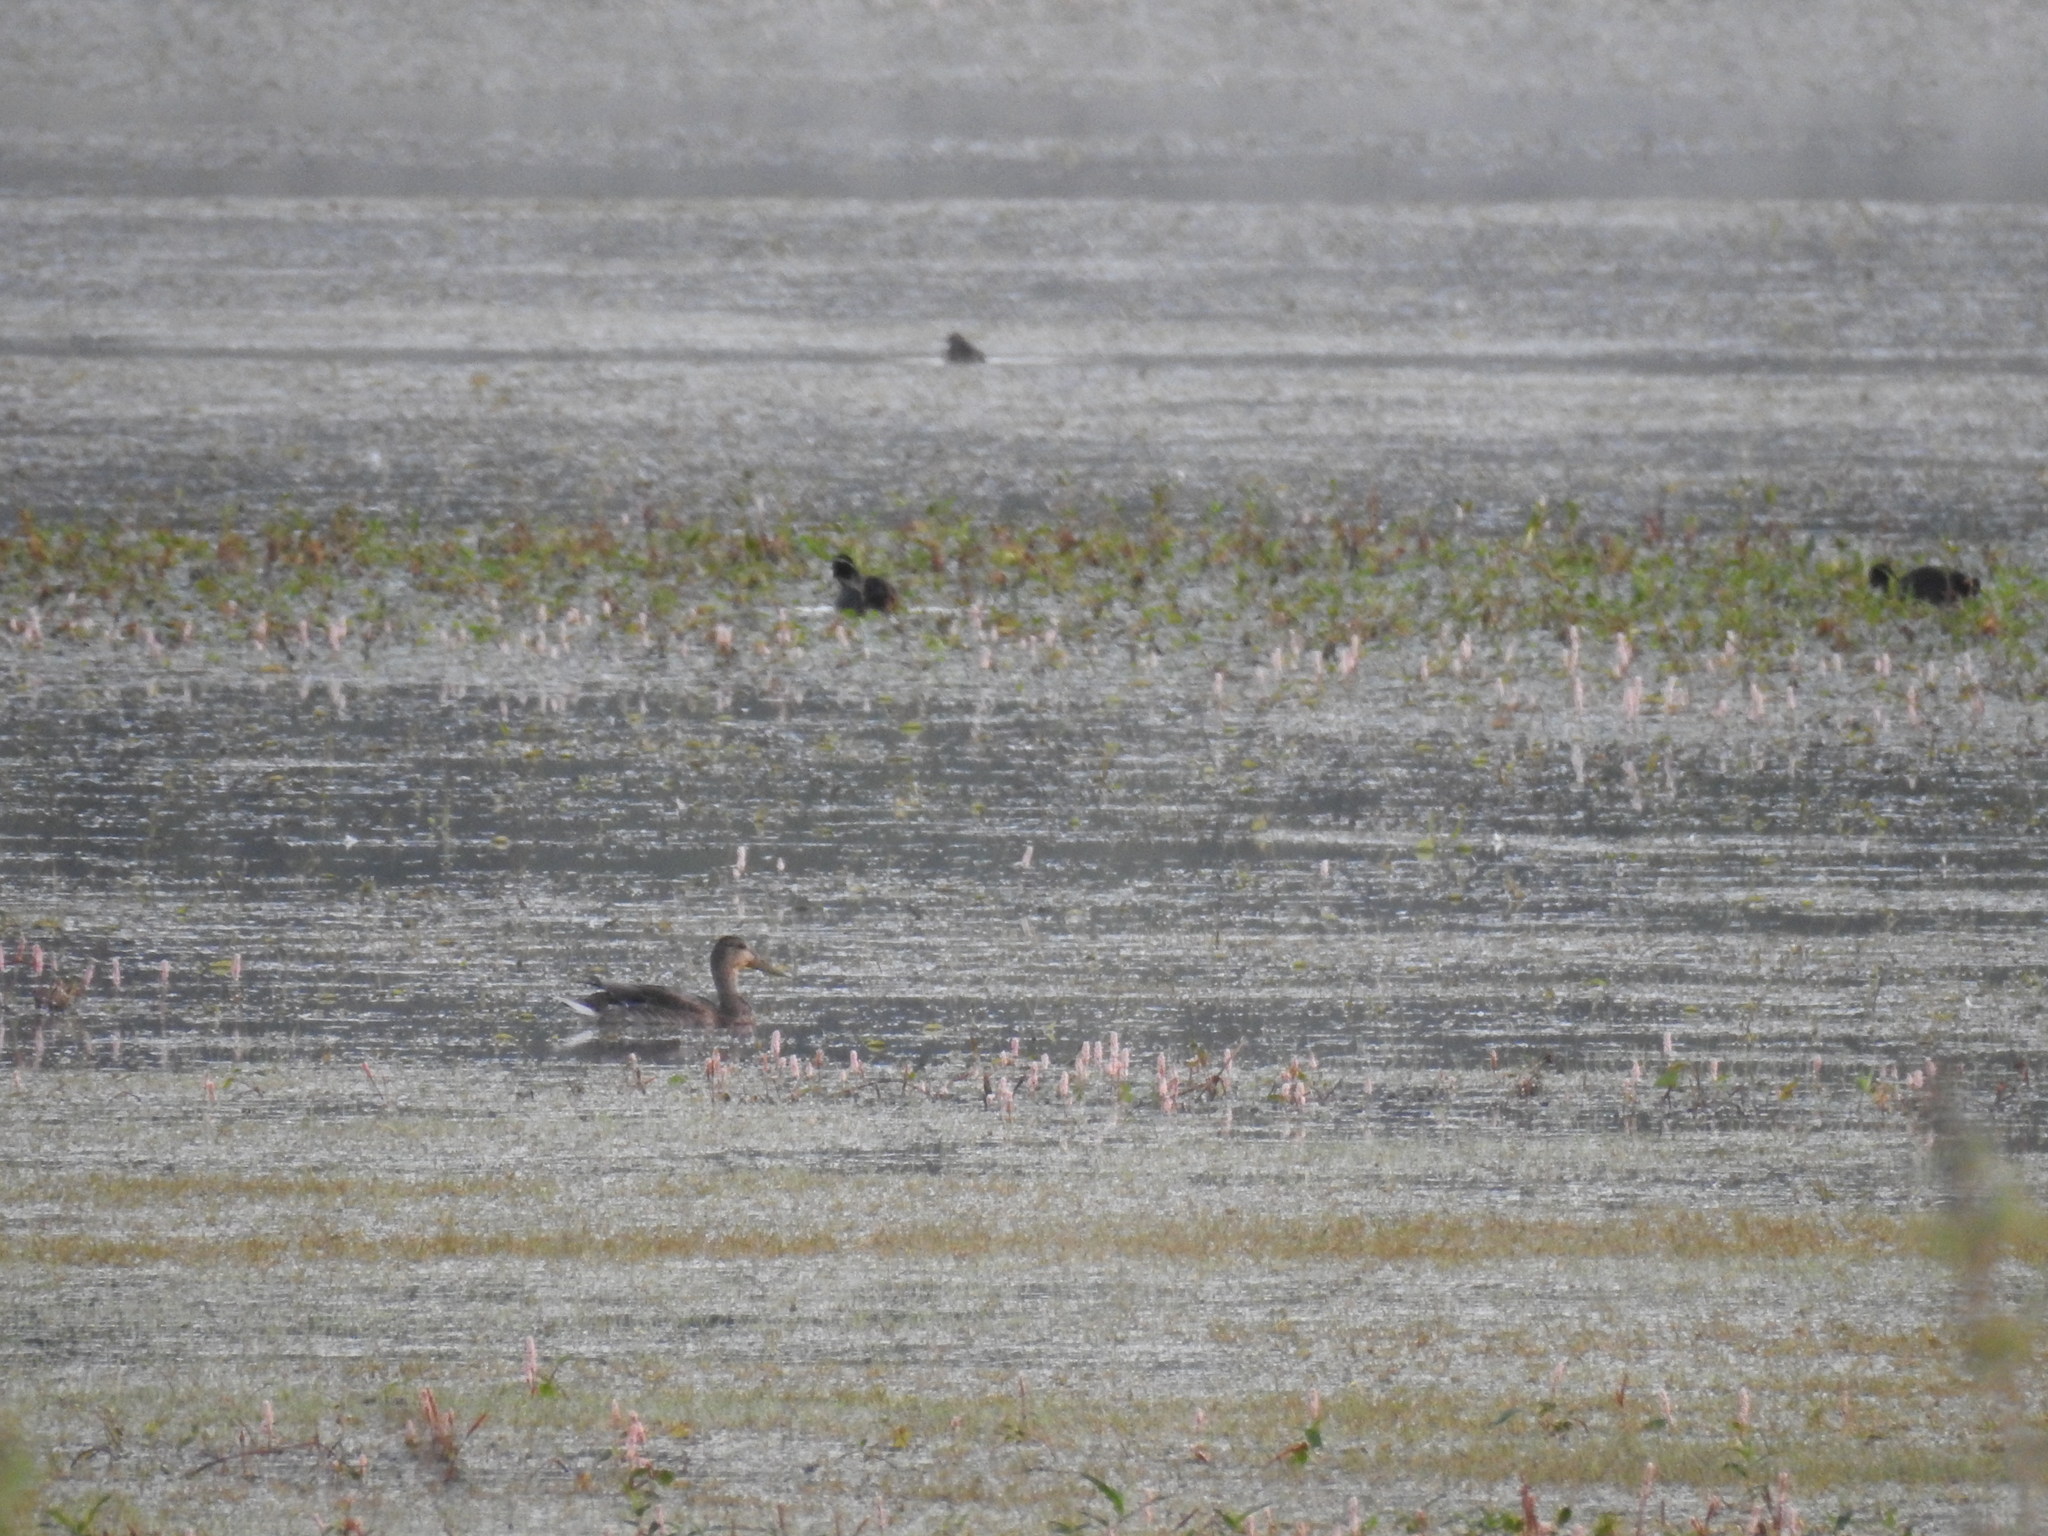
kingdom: Animalia
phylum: Chordata
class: Aves
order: Anseriformes
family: Anatidae
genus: Anas
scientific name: Anas platyrhynchos
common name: Mallard
